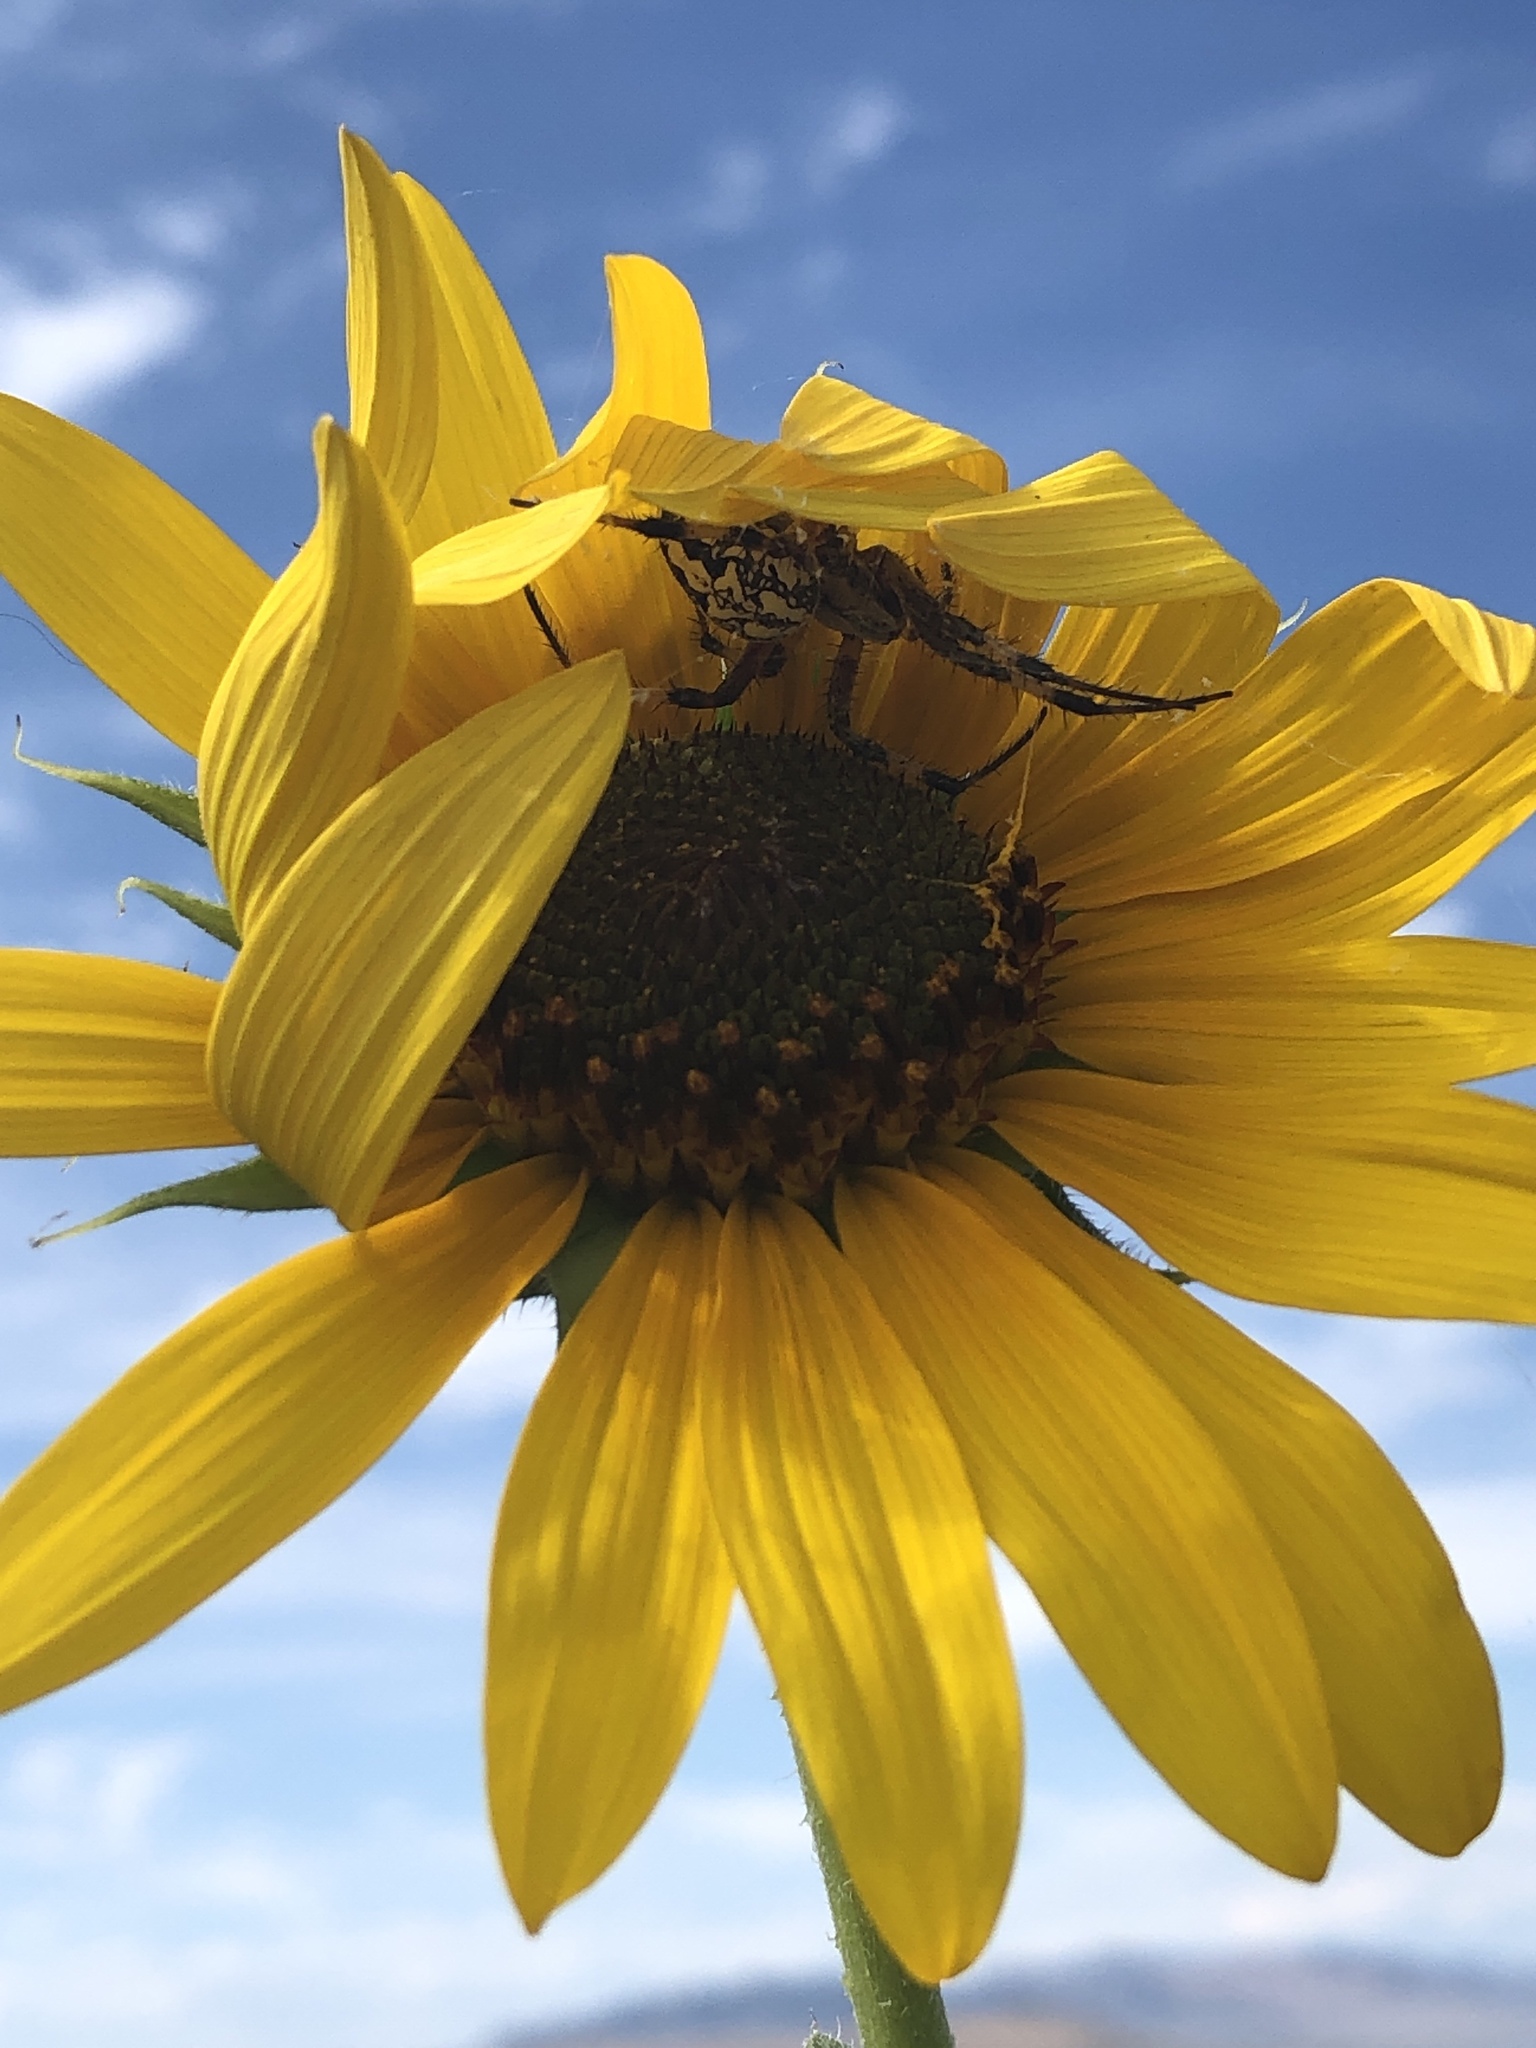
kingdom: Animalia
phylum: Arthropoda
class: Arachnida
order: Araneae
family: Araneidae
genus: Neoscona
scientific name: Neoscona oaxacensis
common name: Orb weavers
